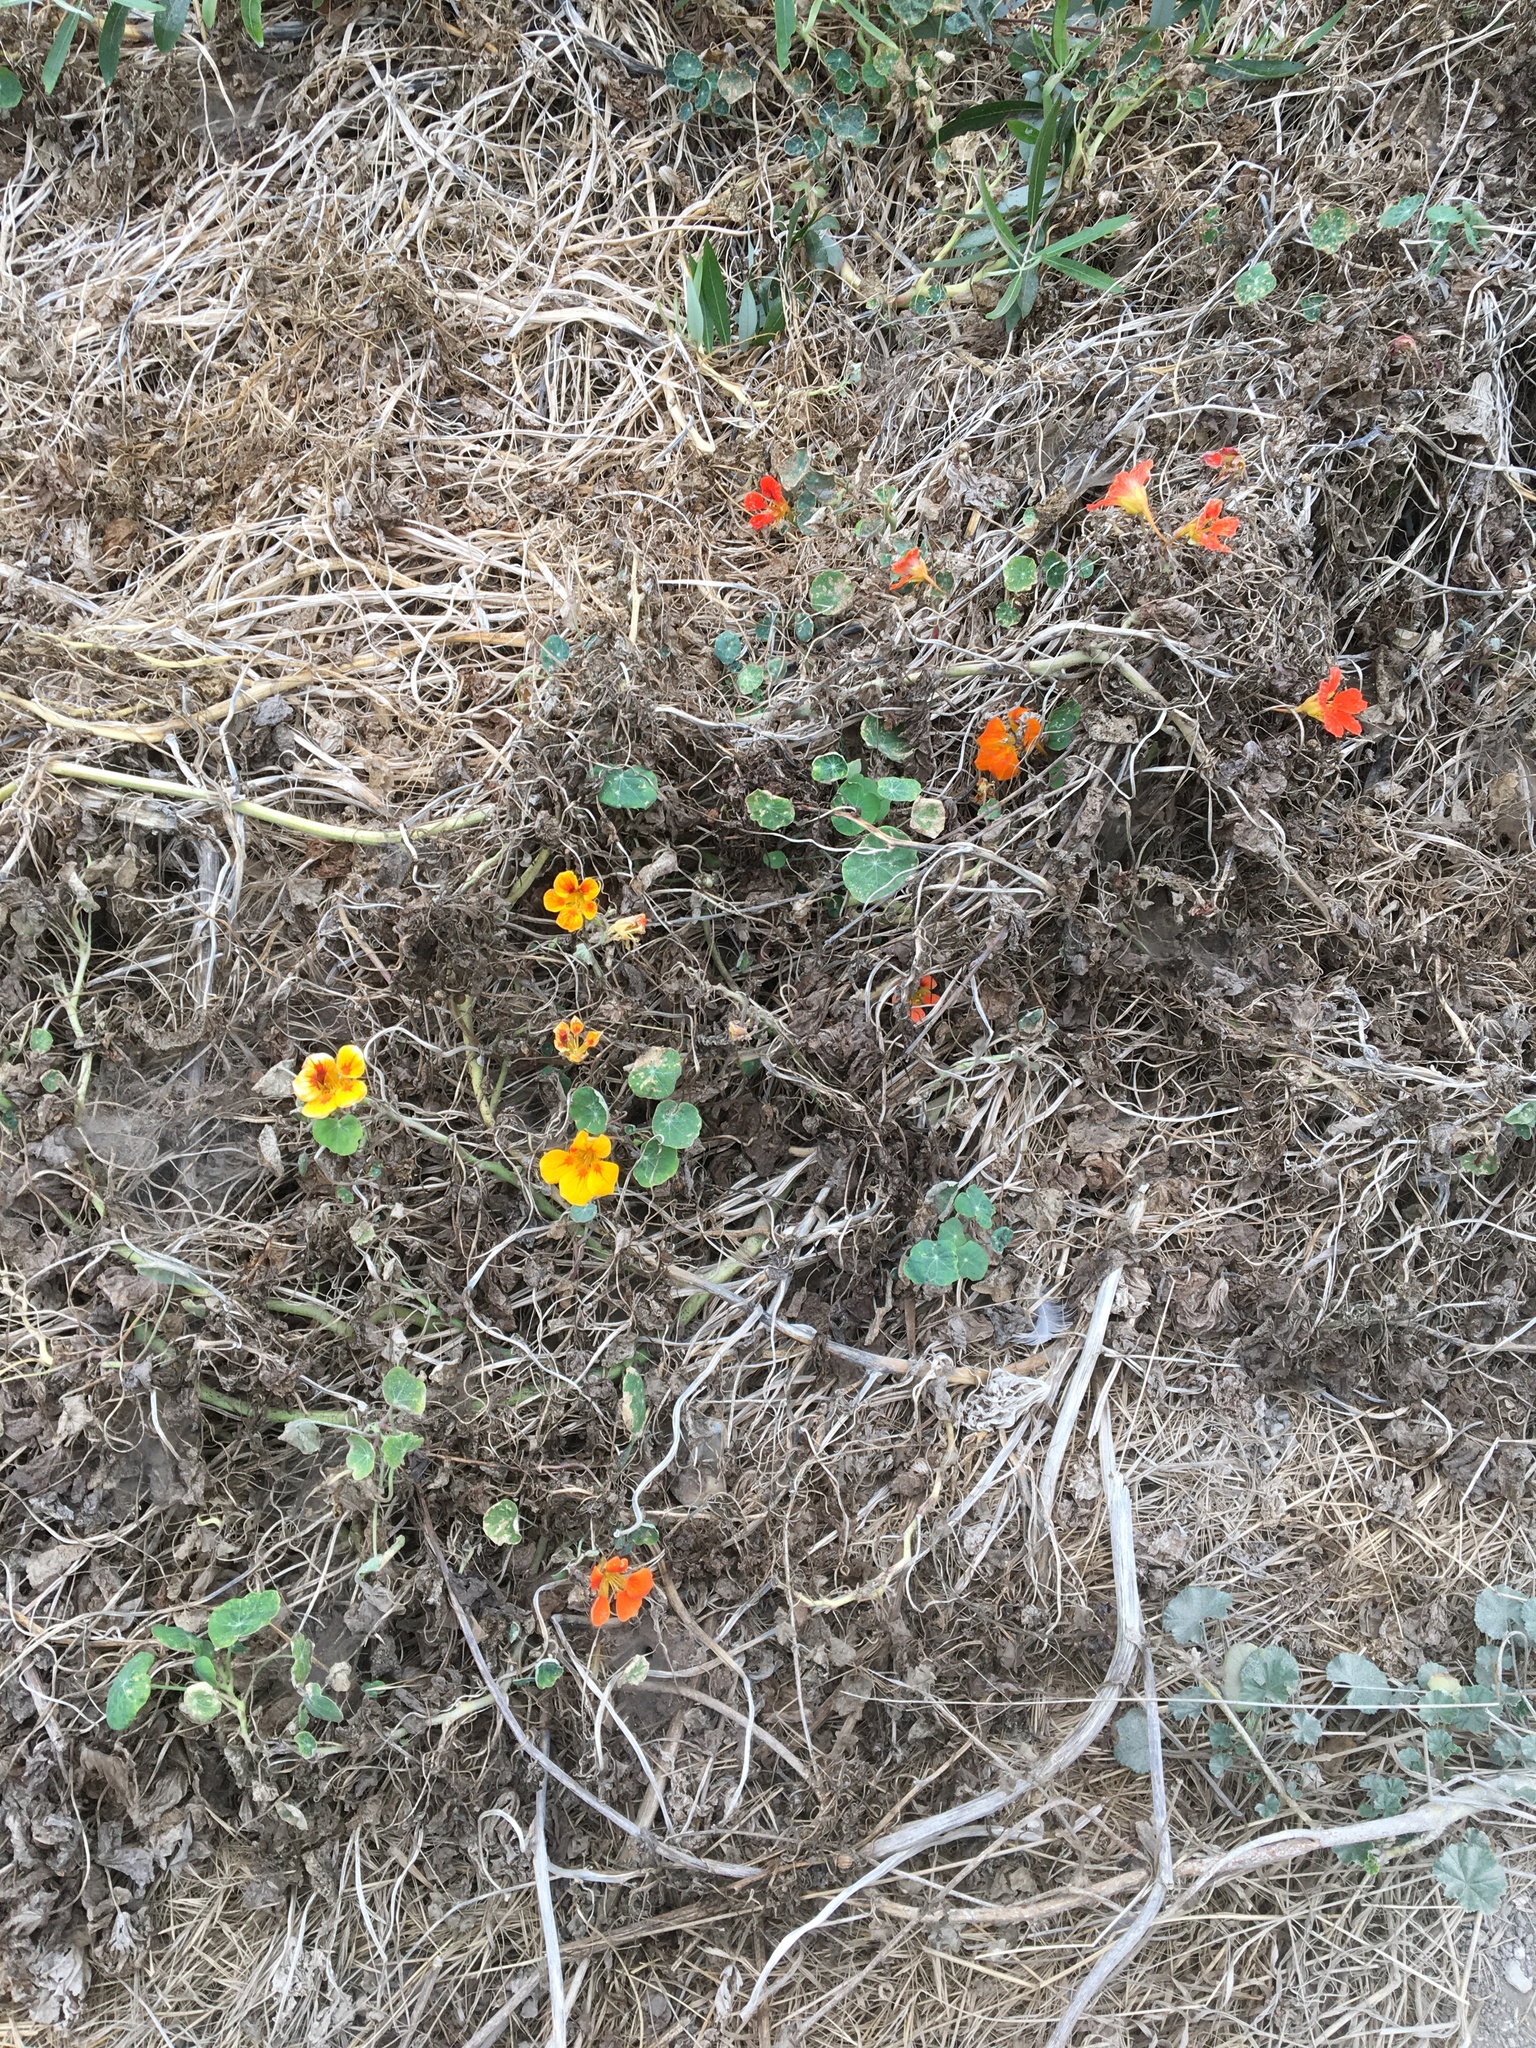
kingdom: Plantae
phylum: Tracheophyta
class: Magnoliopsida
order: Brassicales
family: Tropaeolaceae
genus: Tropaeolum
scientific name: Tropaeolum majus
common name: Nasturtium
